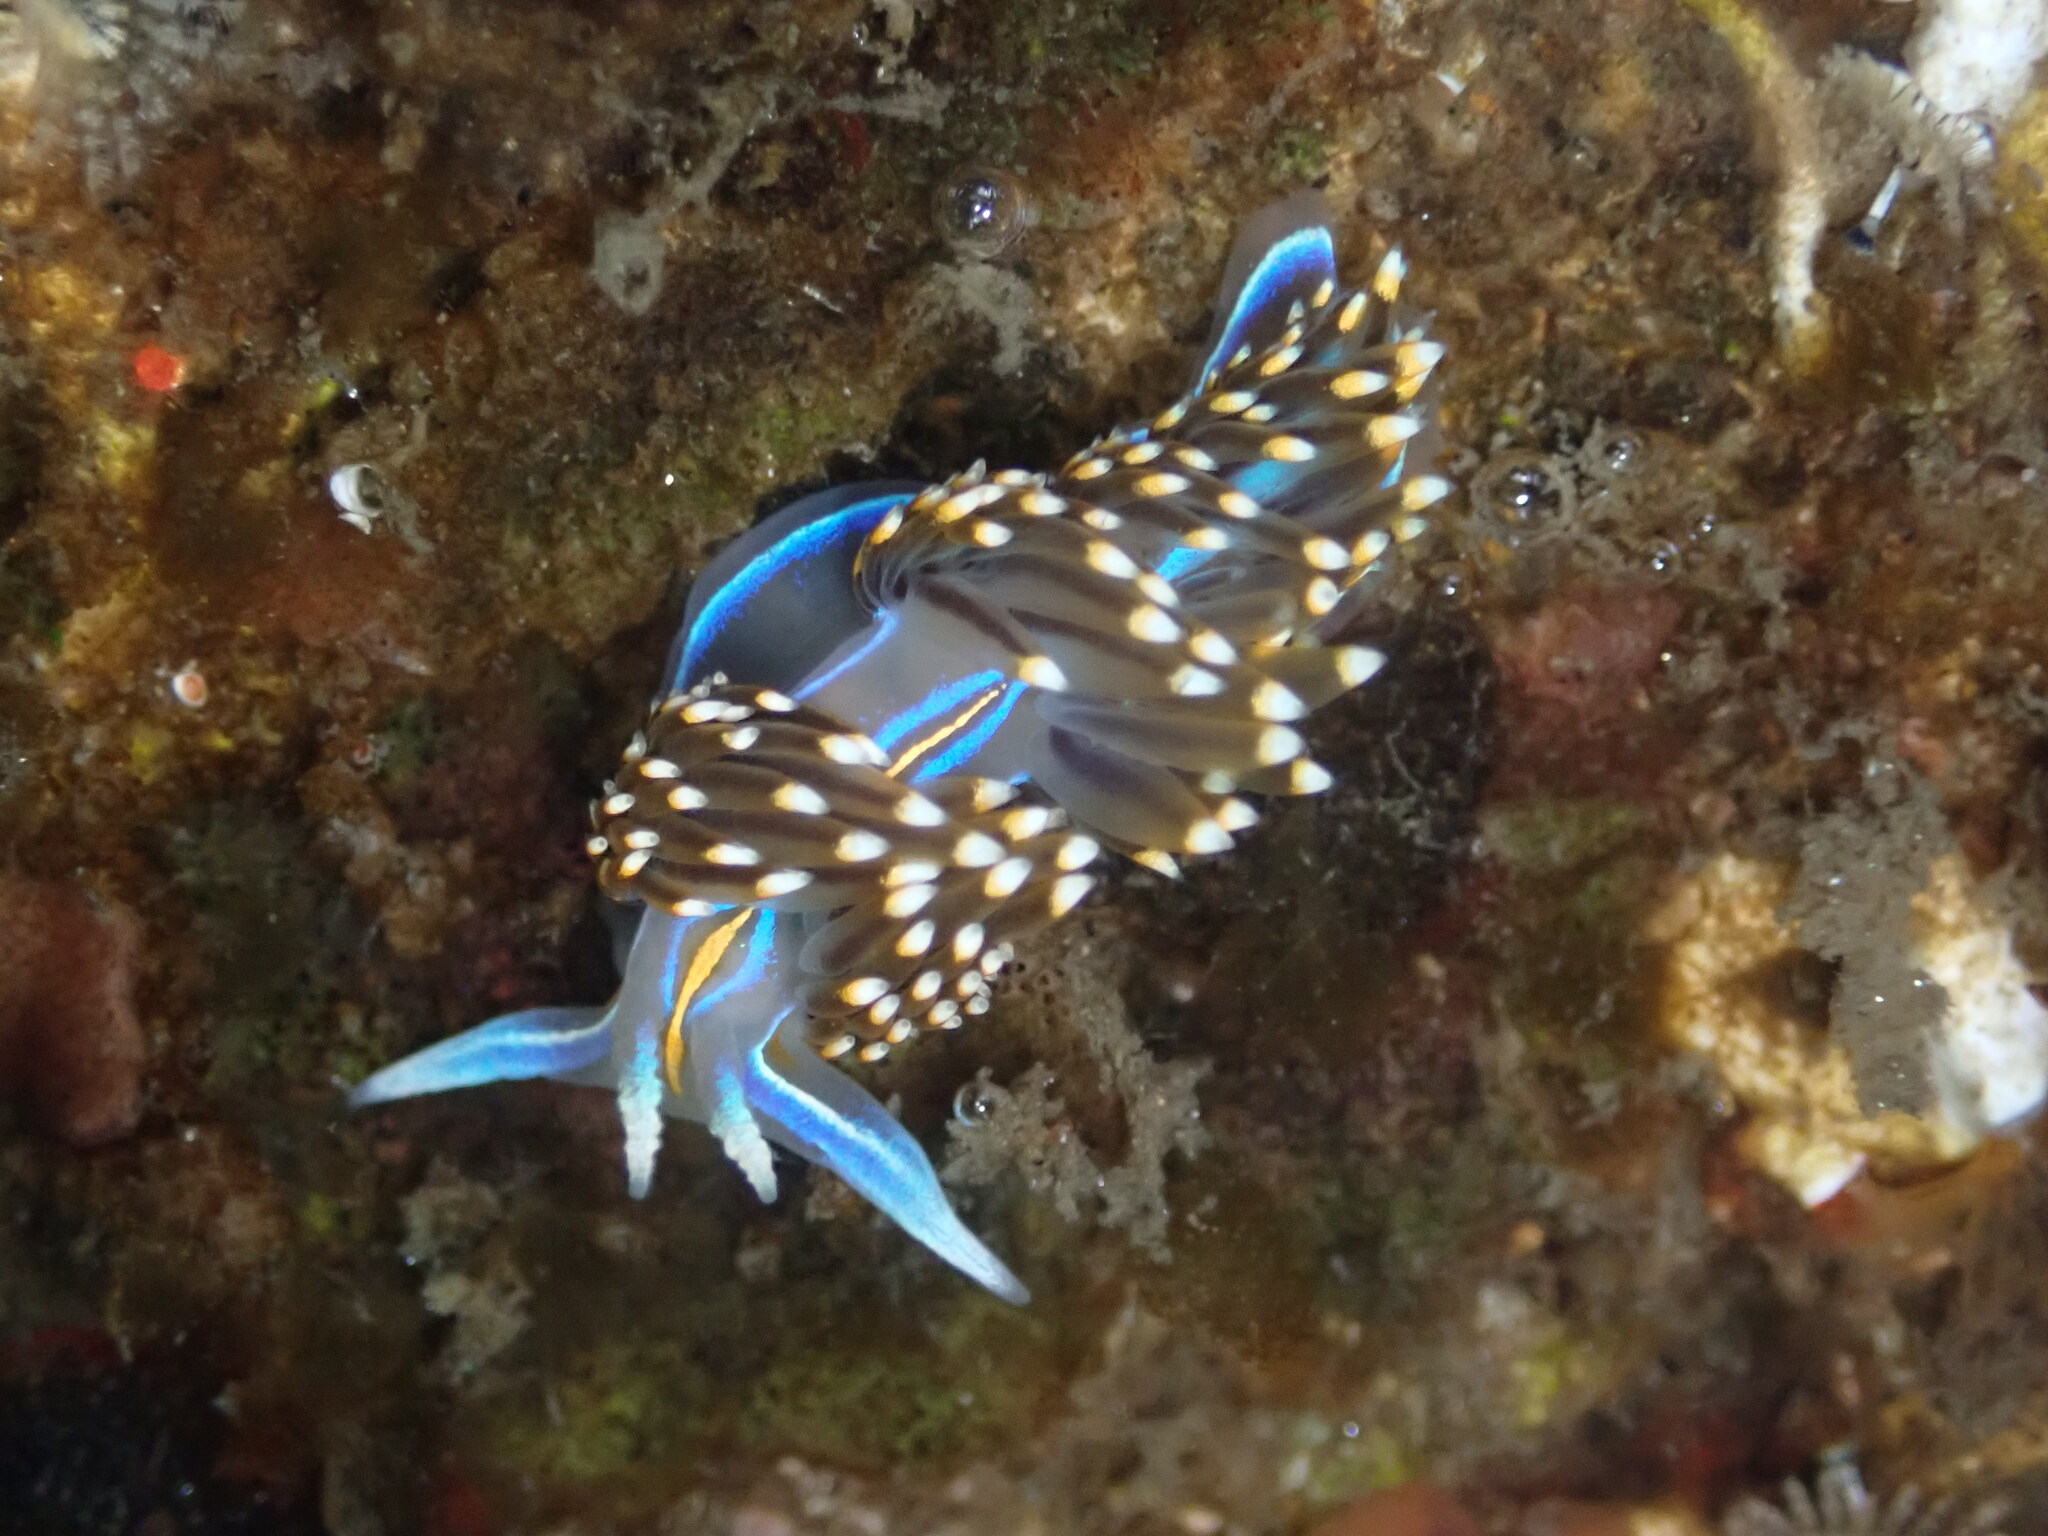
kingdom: Animalia
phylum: Mollusca
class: Gastropoda
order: Nudibranchia
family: Myrrhinidae
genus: Hermissenda
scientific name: Hermissenda opalescens
